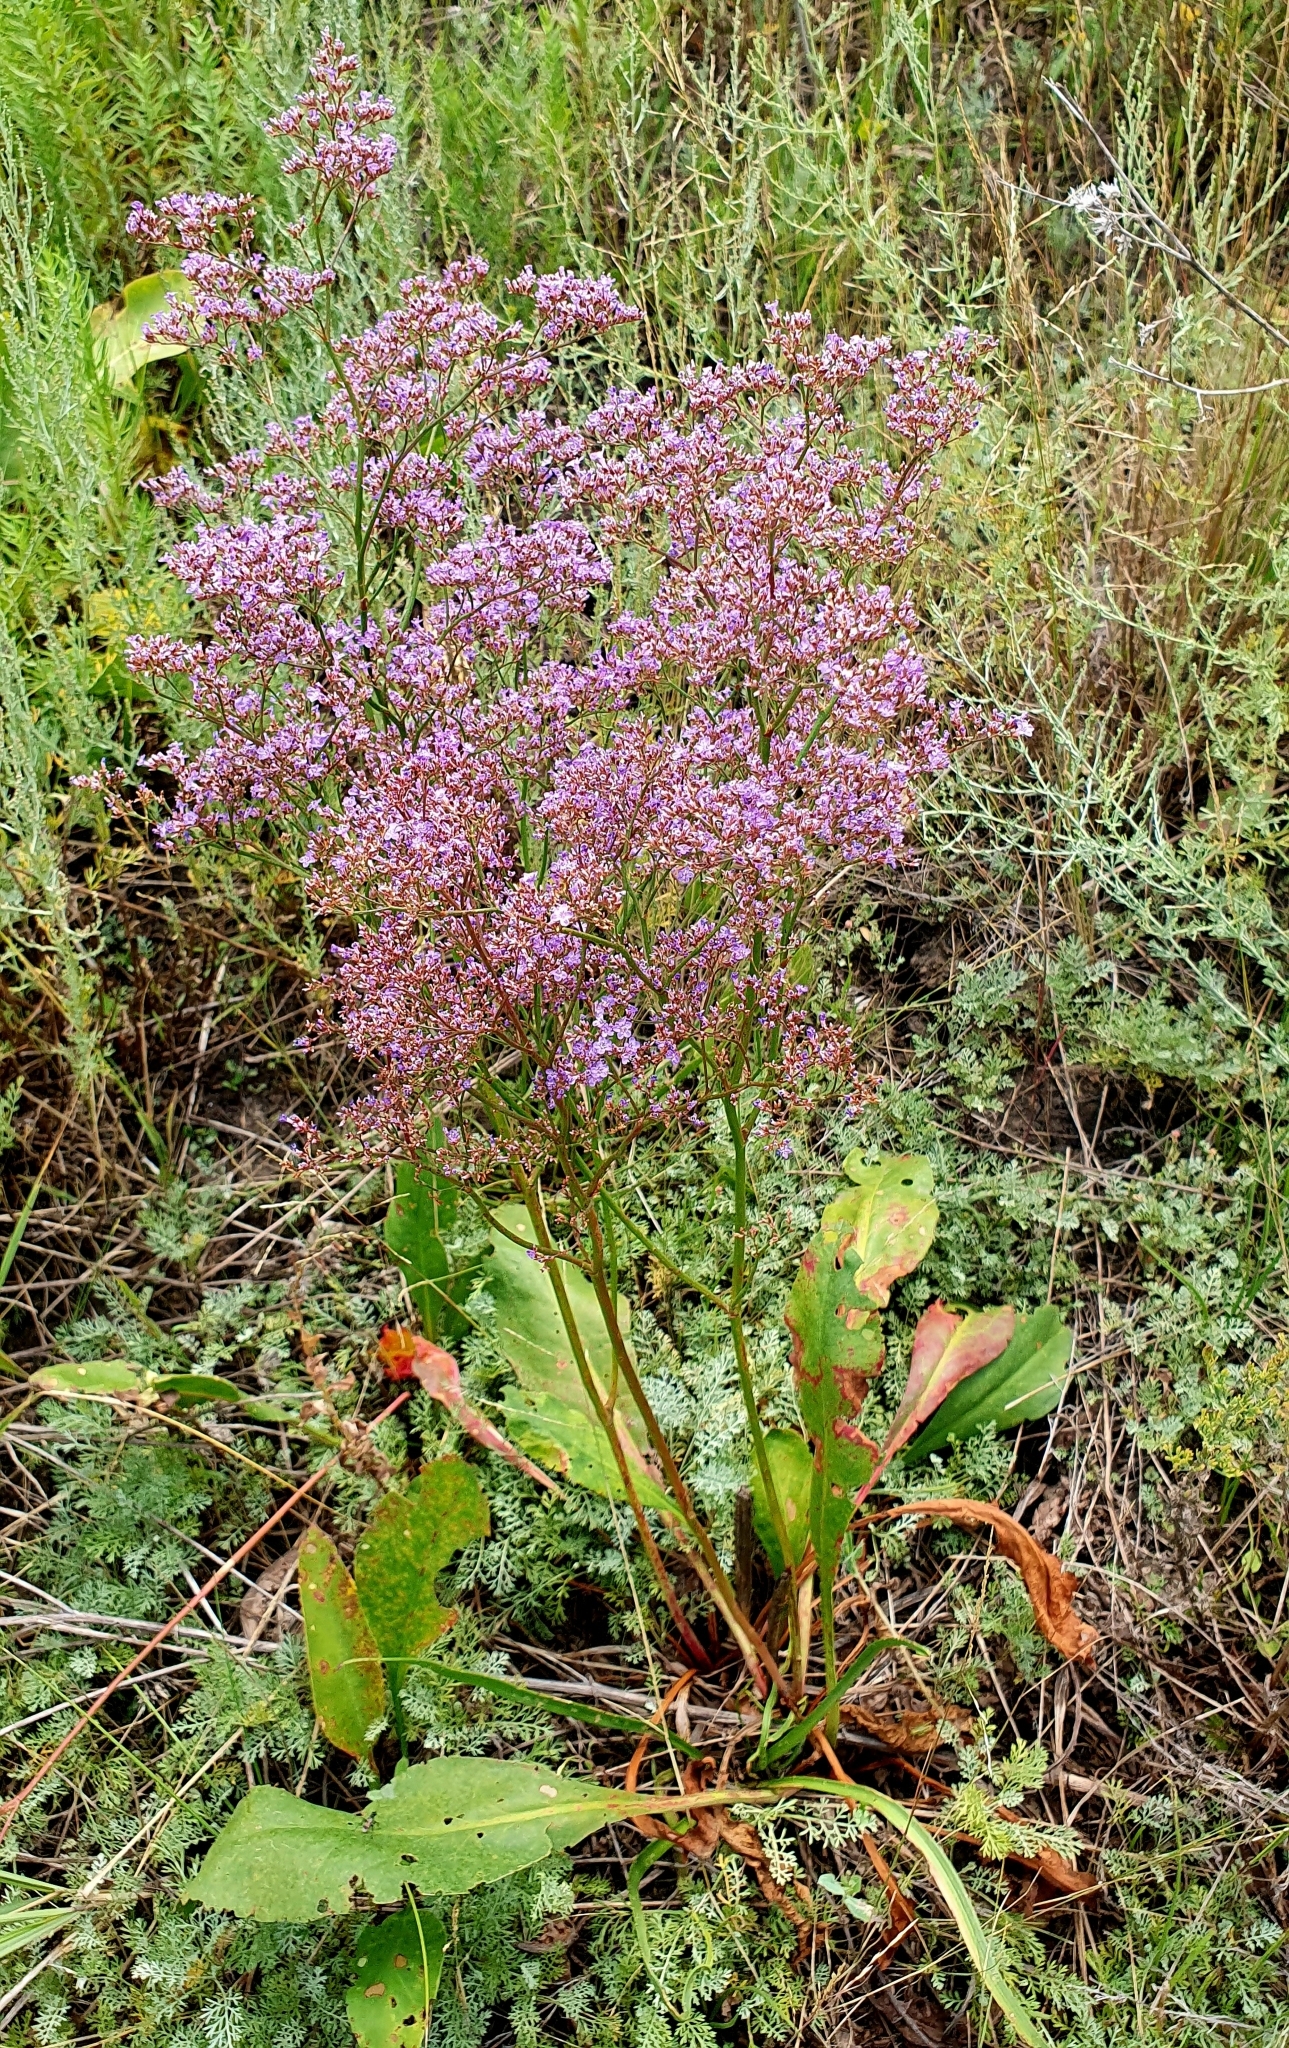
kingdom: Plantae
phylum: Tracheophyta
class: Magnoliopsida
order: Caryophyllales
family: Plumbaginaceae
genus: Limonium
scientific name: Limonium gmelini
